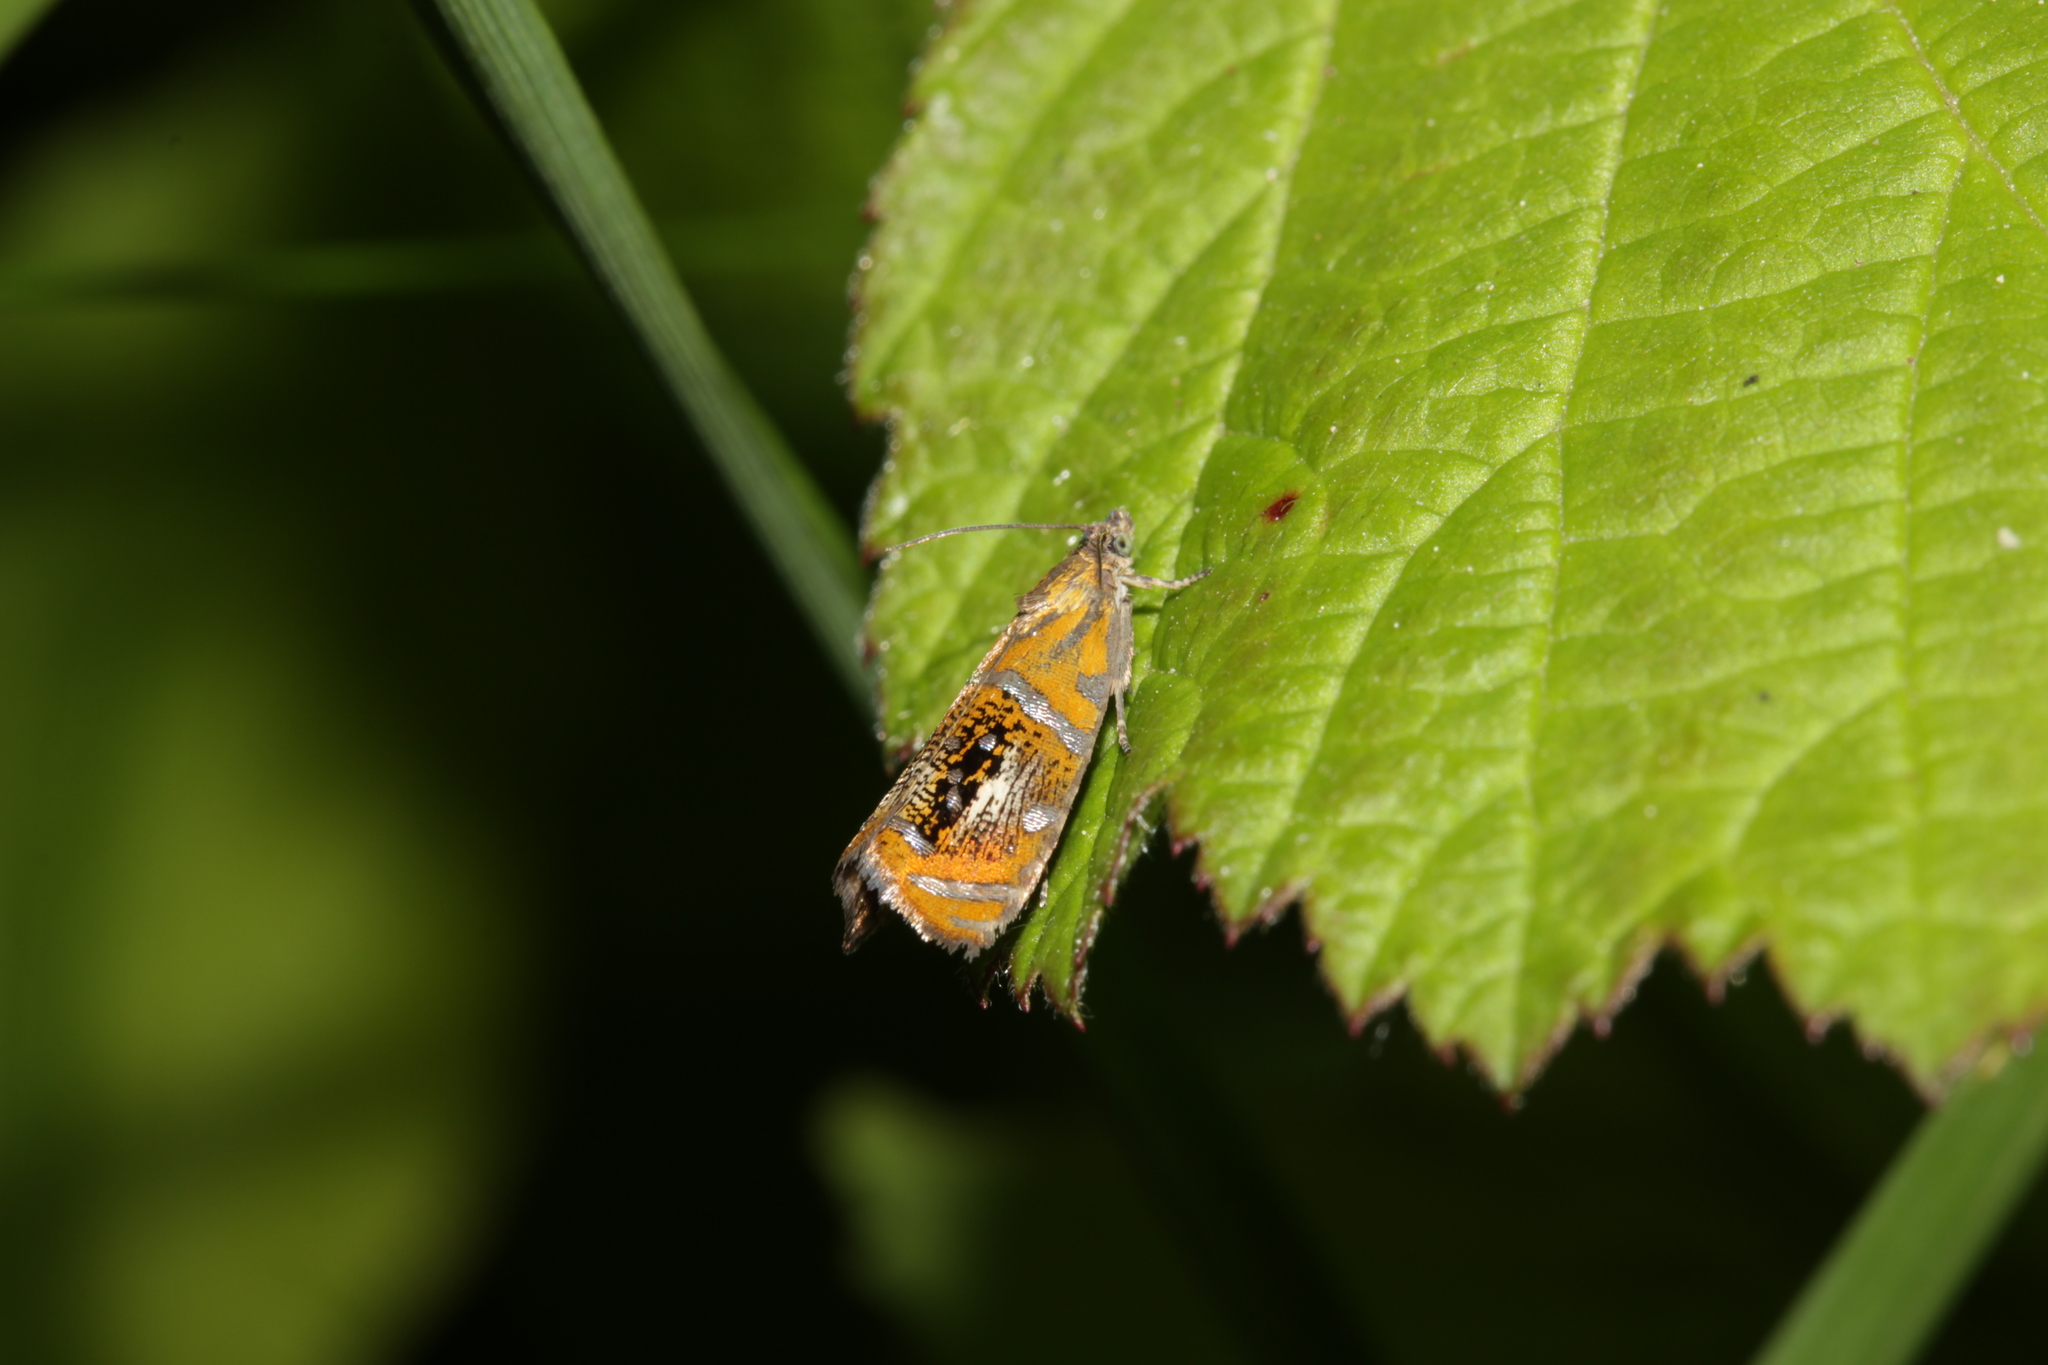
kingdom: Animalia
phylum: Arthropoda
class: Insecta
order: Lepidoptera
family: Tortricidae
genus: Olethreutes
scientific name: Olethreutes arcuella
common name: Arched marble
